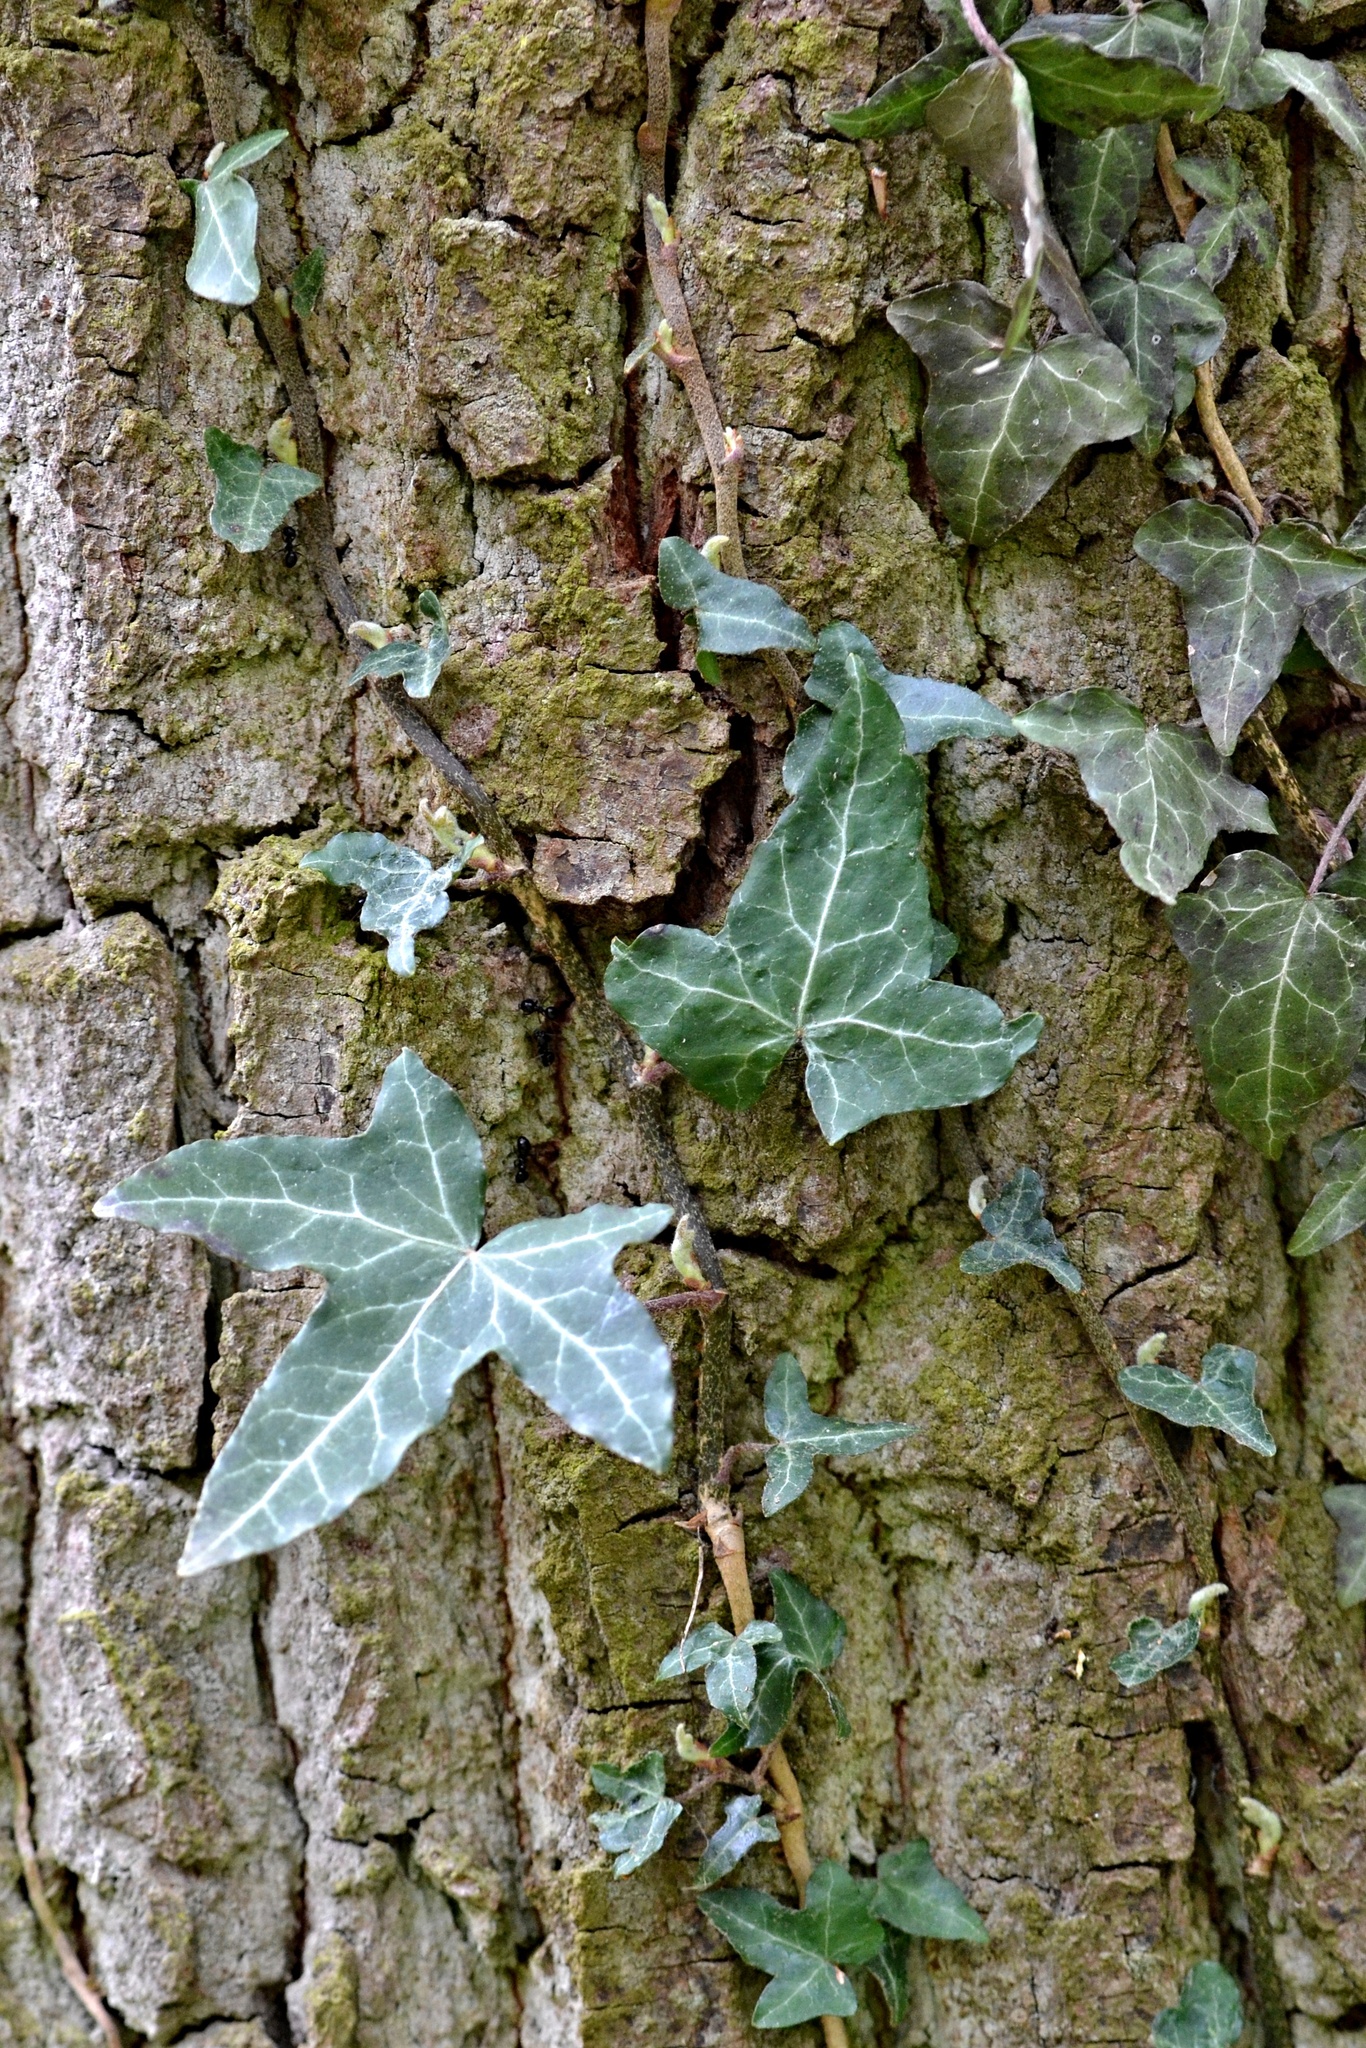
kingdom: Plantae
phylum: Tracheophyta
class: Magnoliopsida
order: Apiales
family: Araliaceae
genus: Hedera
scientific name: Hedera helix
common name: Ivy
